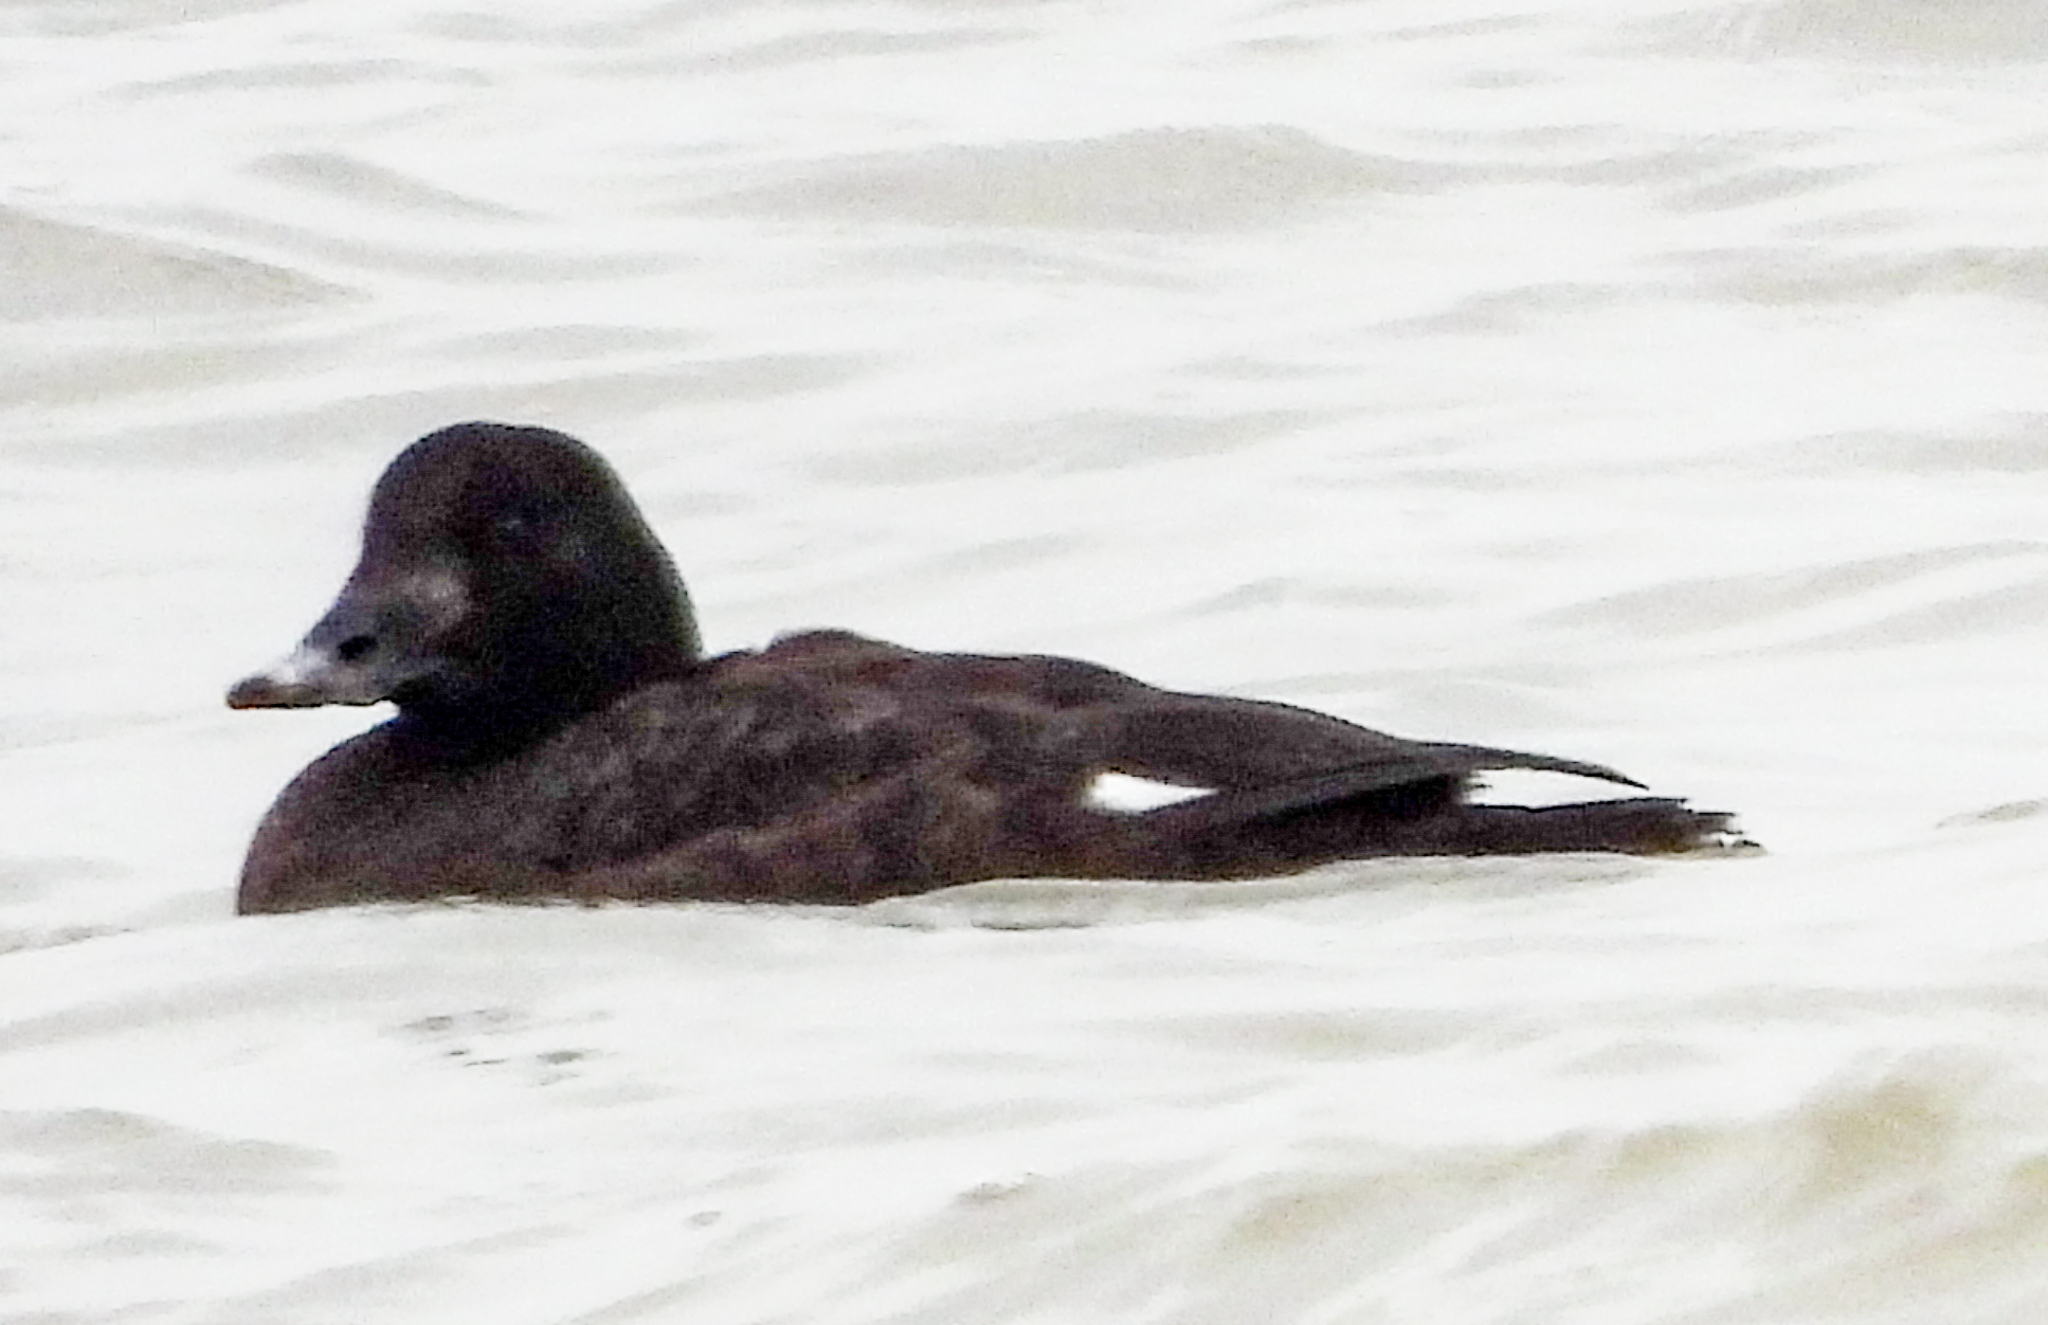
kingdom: Animalia
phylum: Chordata
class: Aves
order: Anseriformes
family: Anatidae
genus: Melanitta
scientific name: Melanitta deglandi
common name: White-winged scoter
